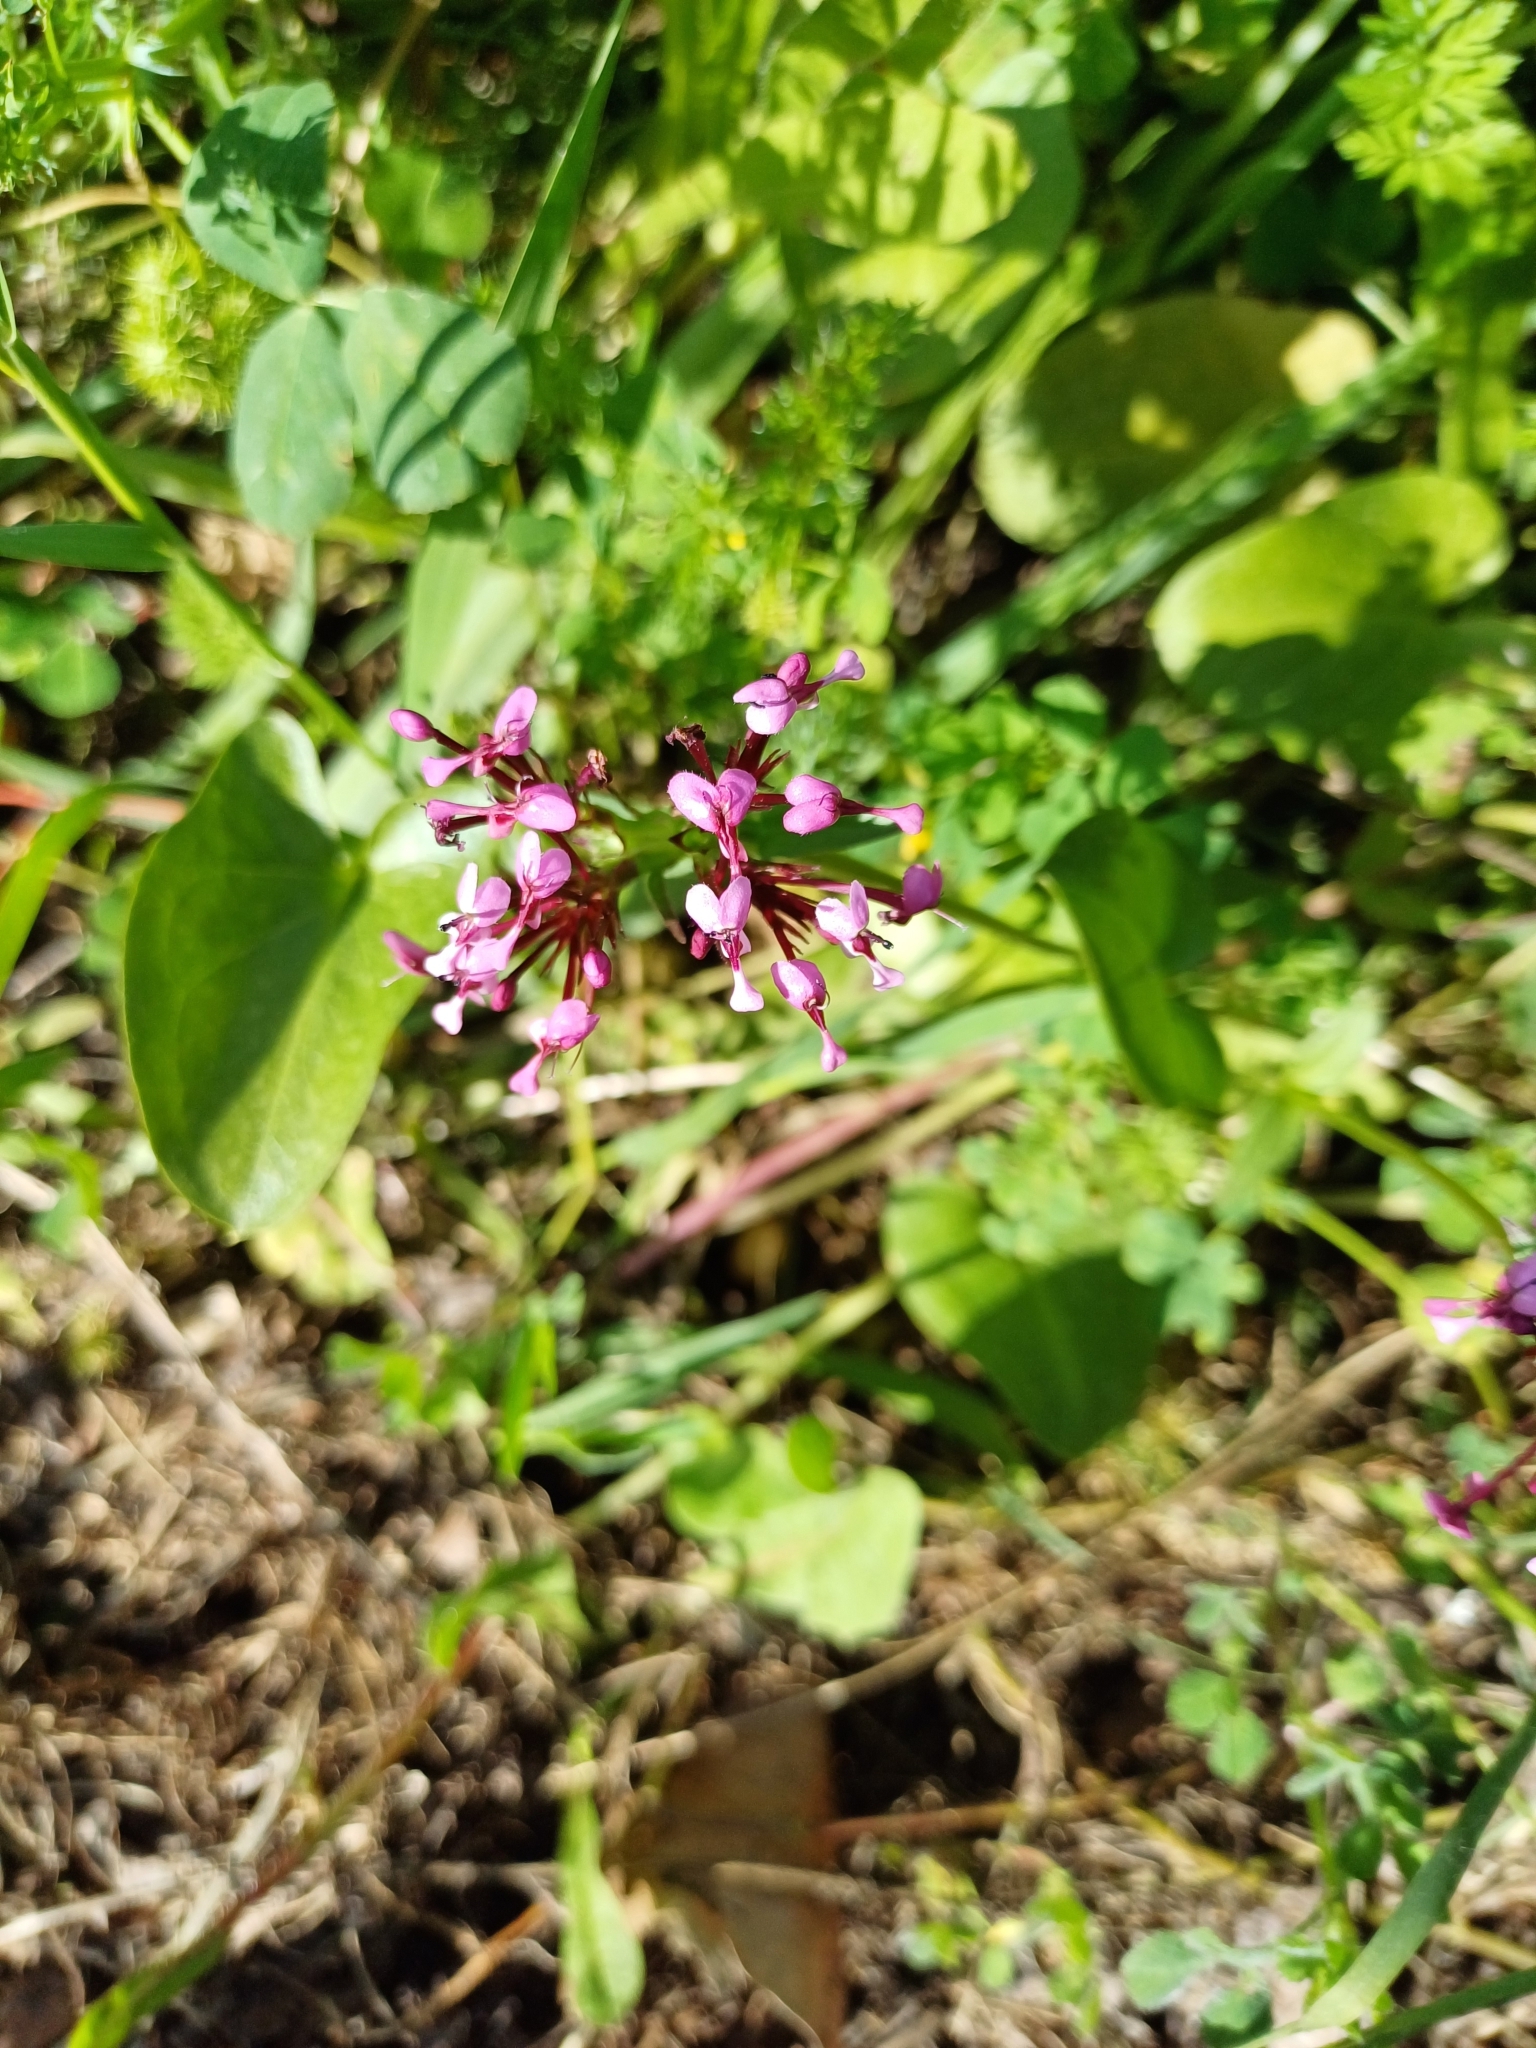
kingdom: Plantae
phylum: Tracheophyta
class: Magnoliopsida
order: Dipsacales
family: Caprifoliaceae
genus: Fedia
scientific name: Fedia cornucopiae
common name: Horn-of-plenty
